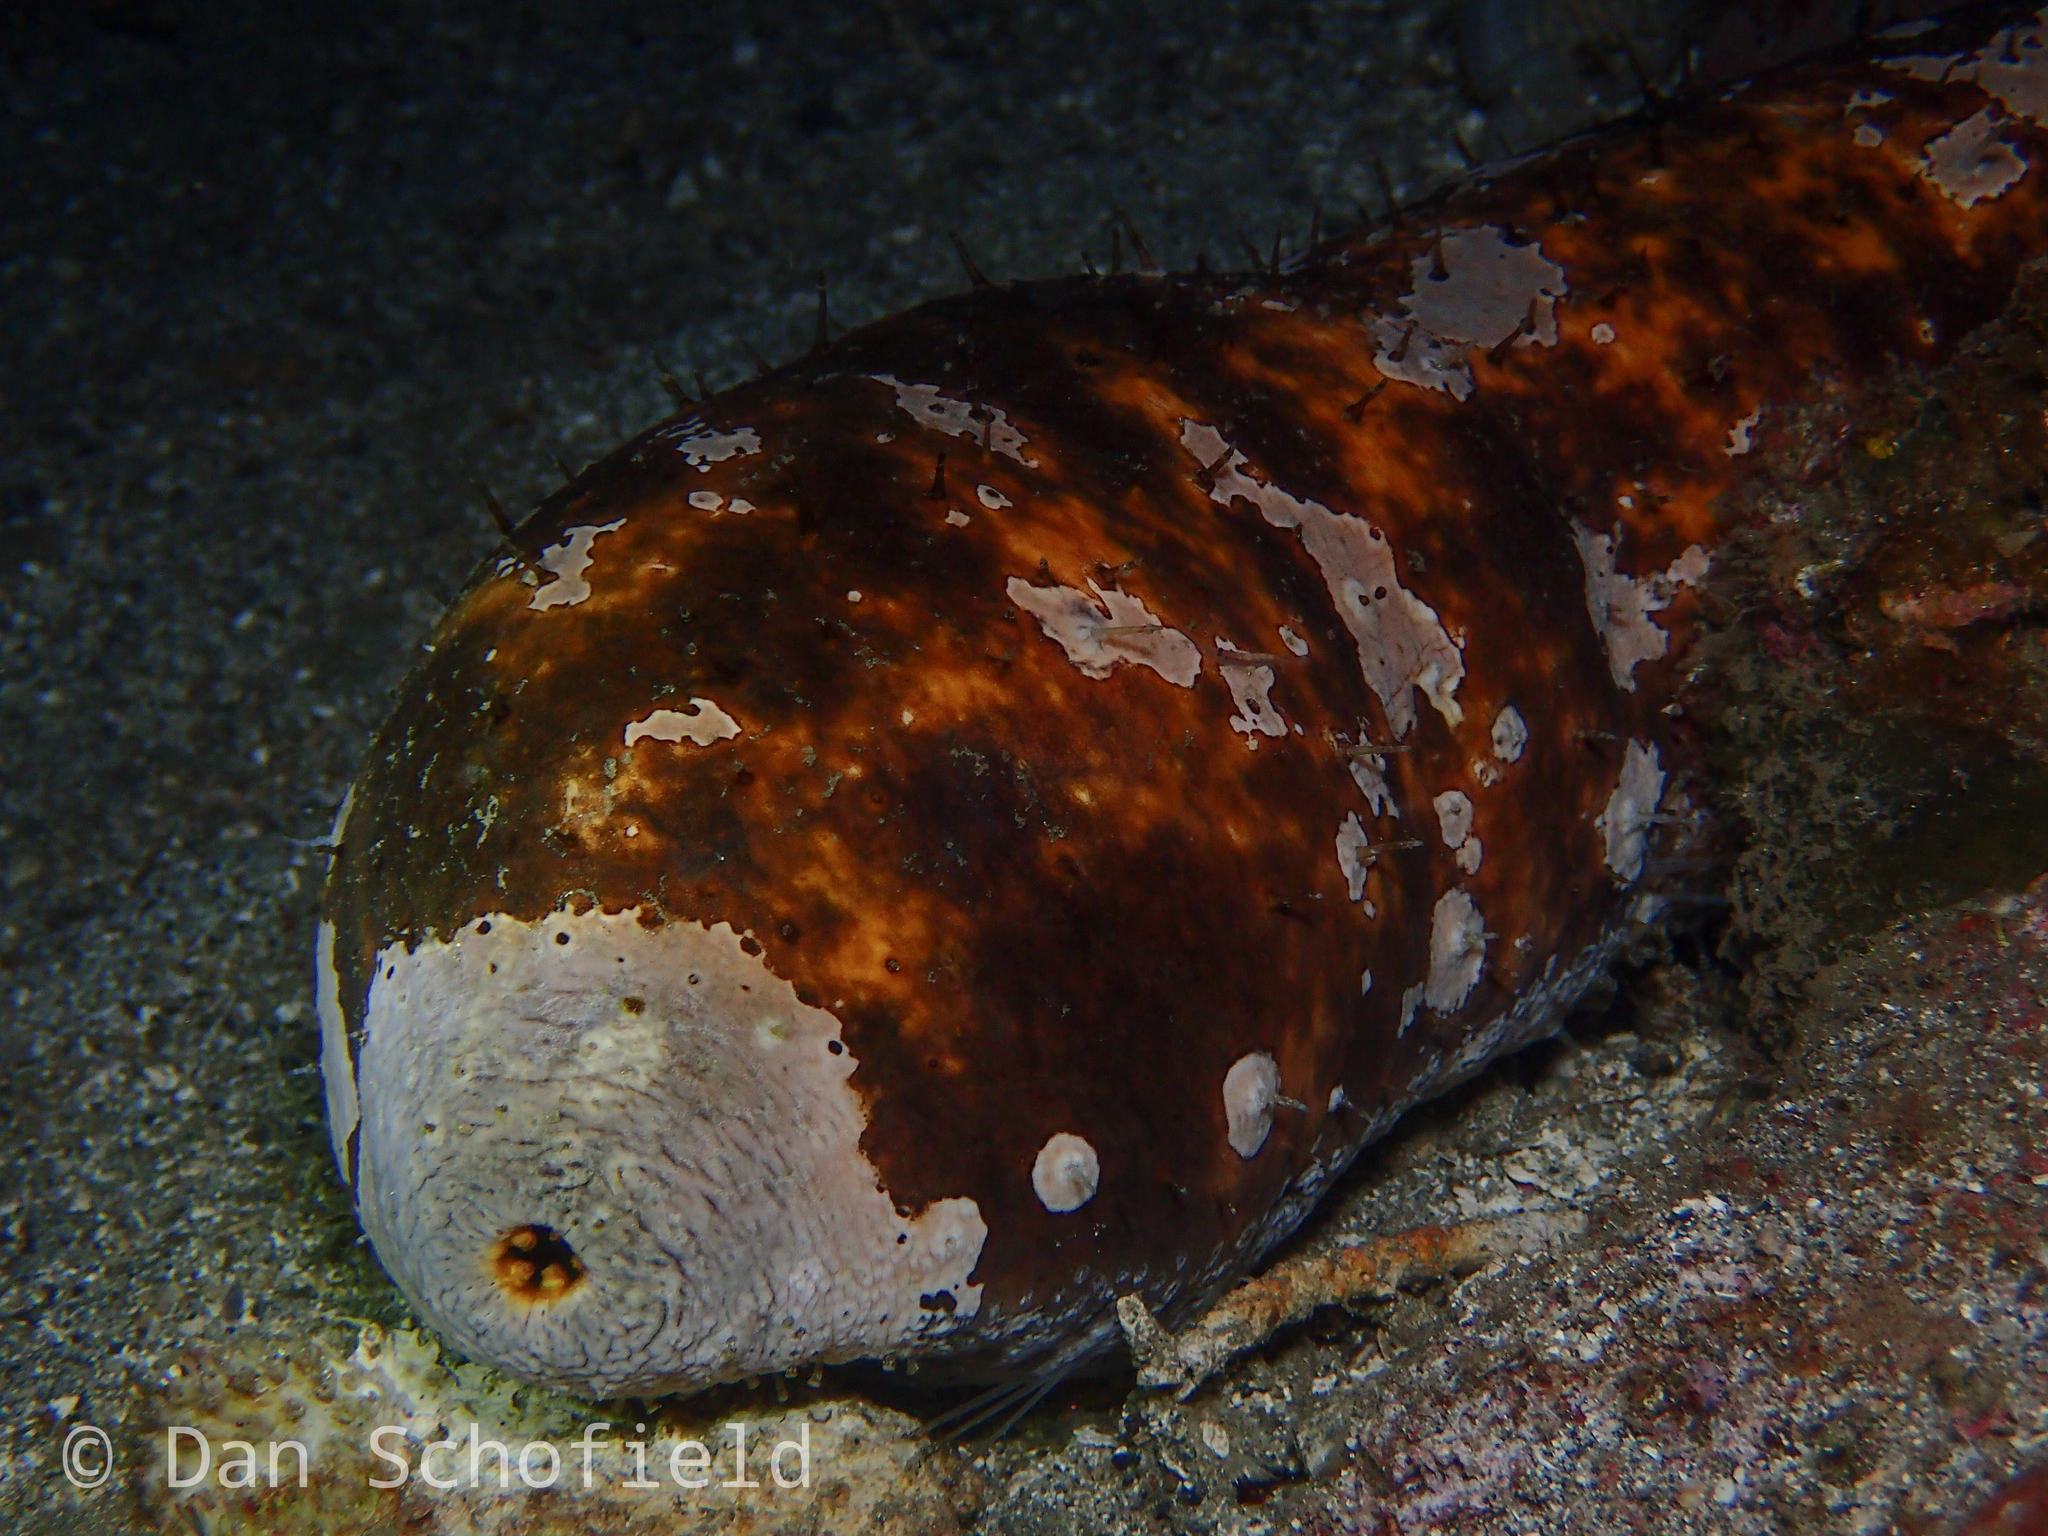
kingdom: Animalia
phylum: Echinodermata
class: Holothuroidea
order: Holothuriida
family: Holothuriidae
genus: Actinopyga
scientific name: Actinopyga lecanora
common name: Stonefish
